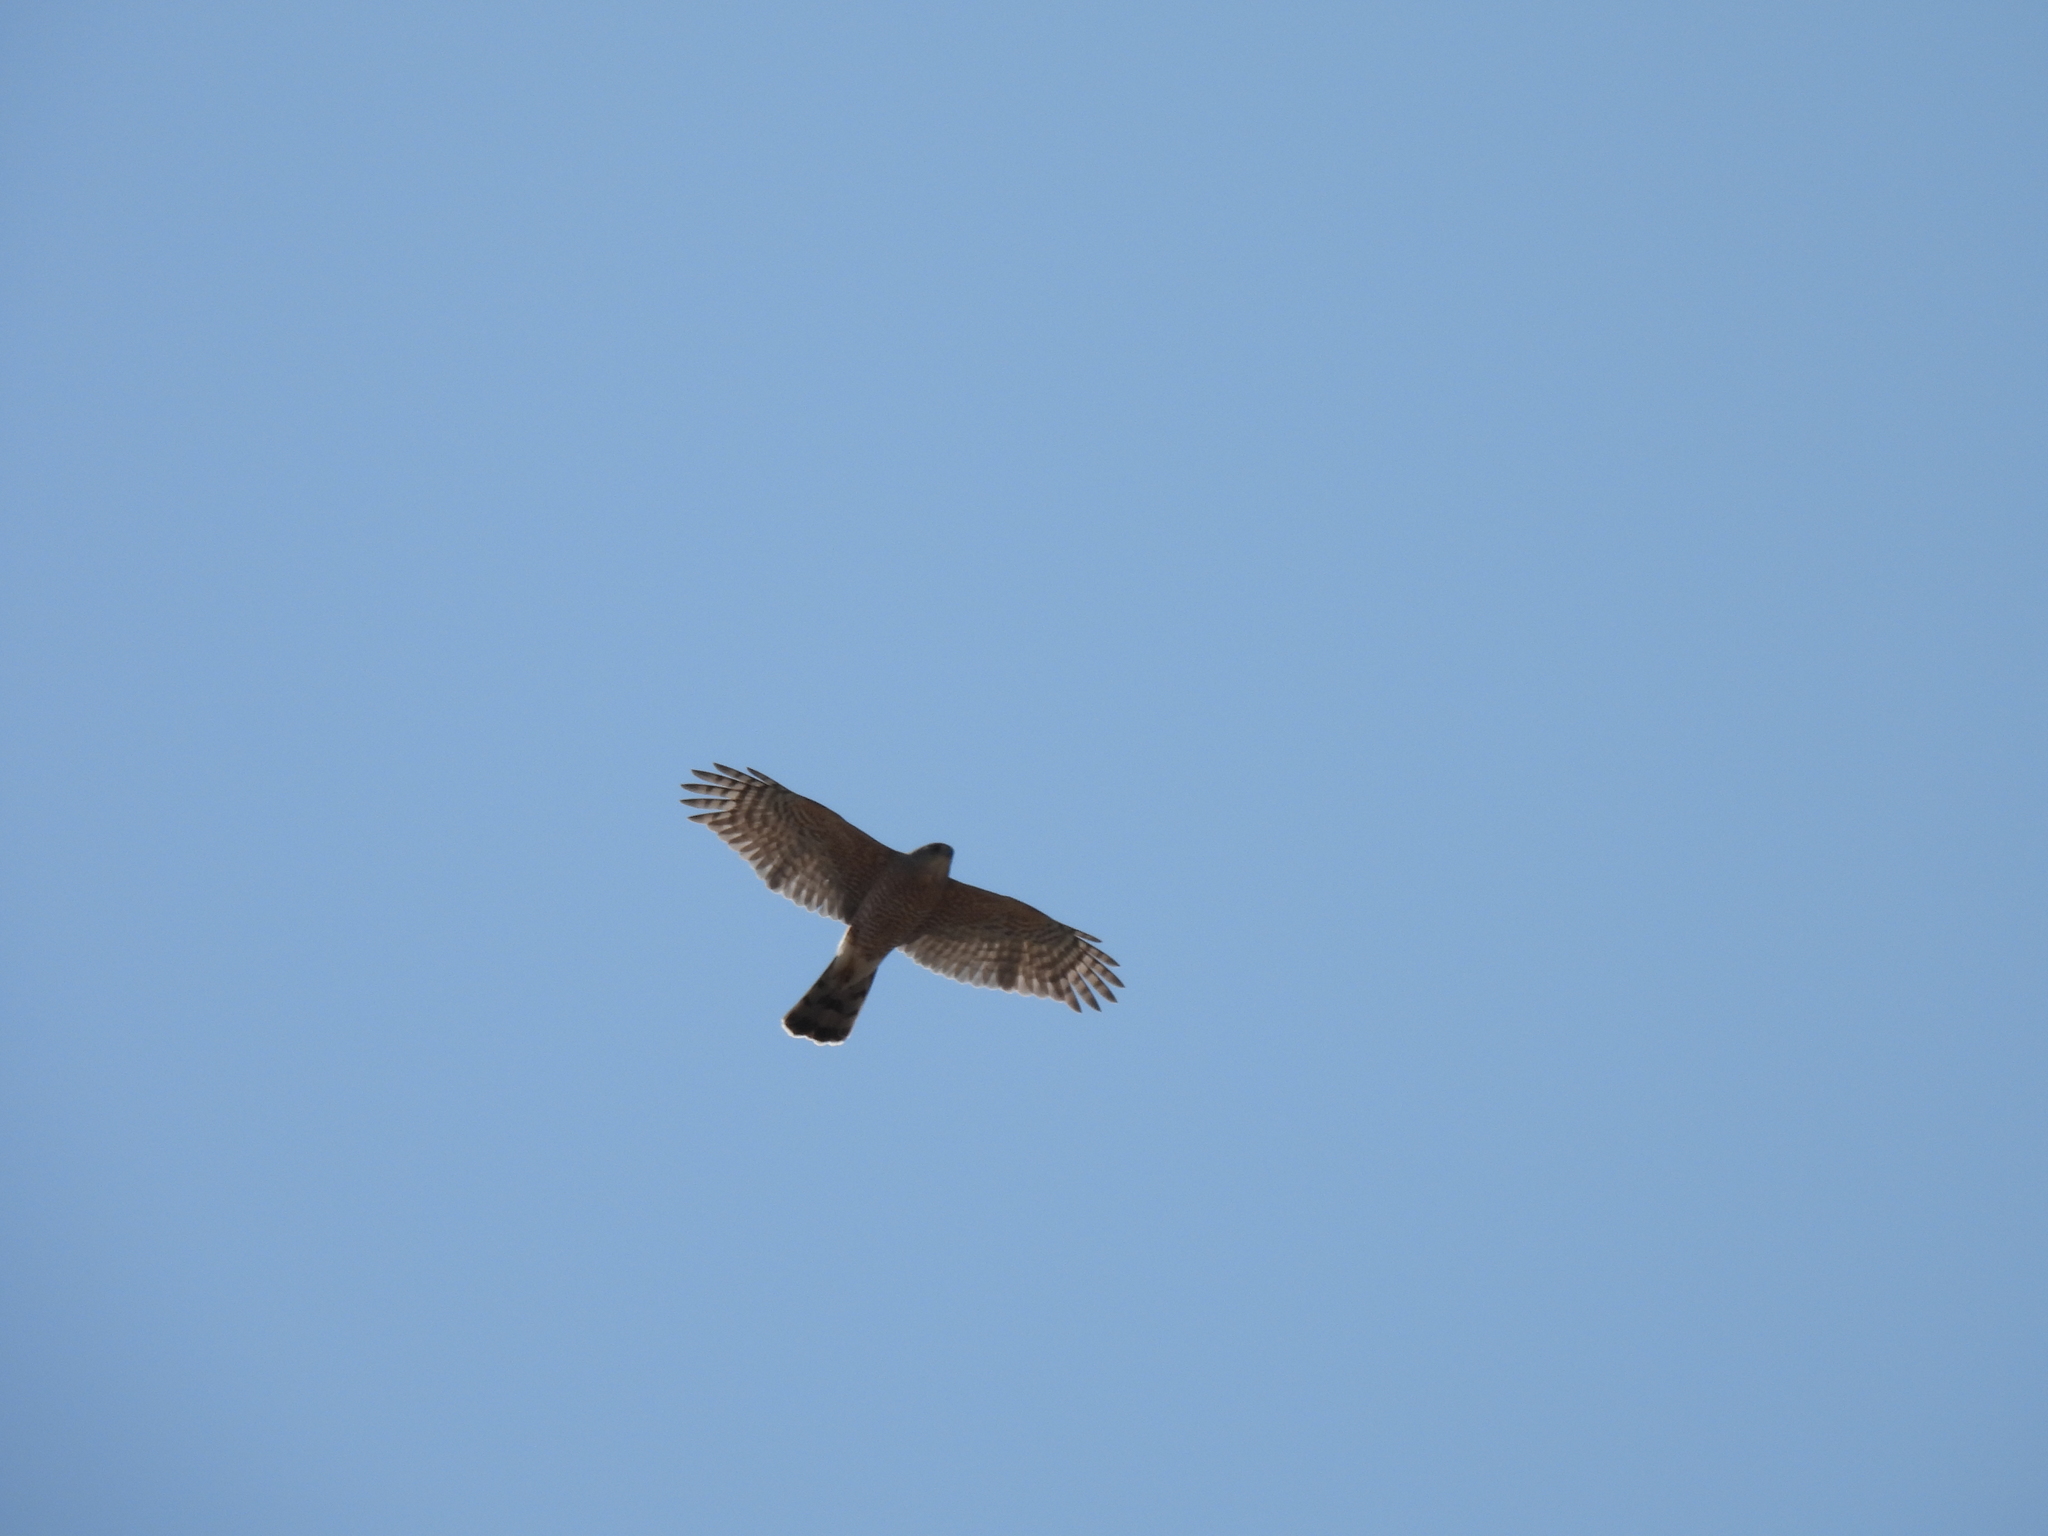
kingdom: Animalia
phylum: Chordata
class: Aves
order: Accipitriformes
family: Accipitridae
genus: Accipiter
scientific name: Accipiter cooperii
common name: Cooper's hawk
